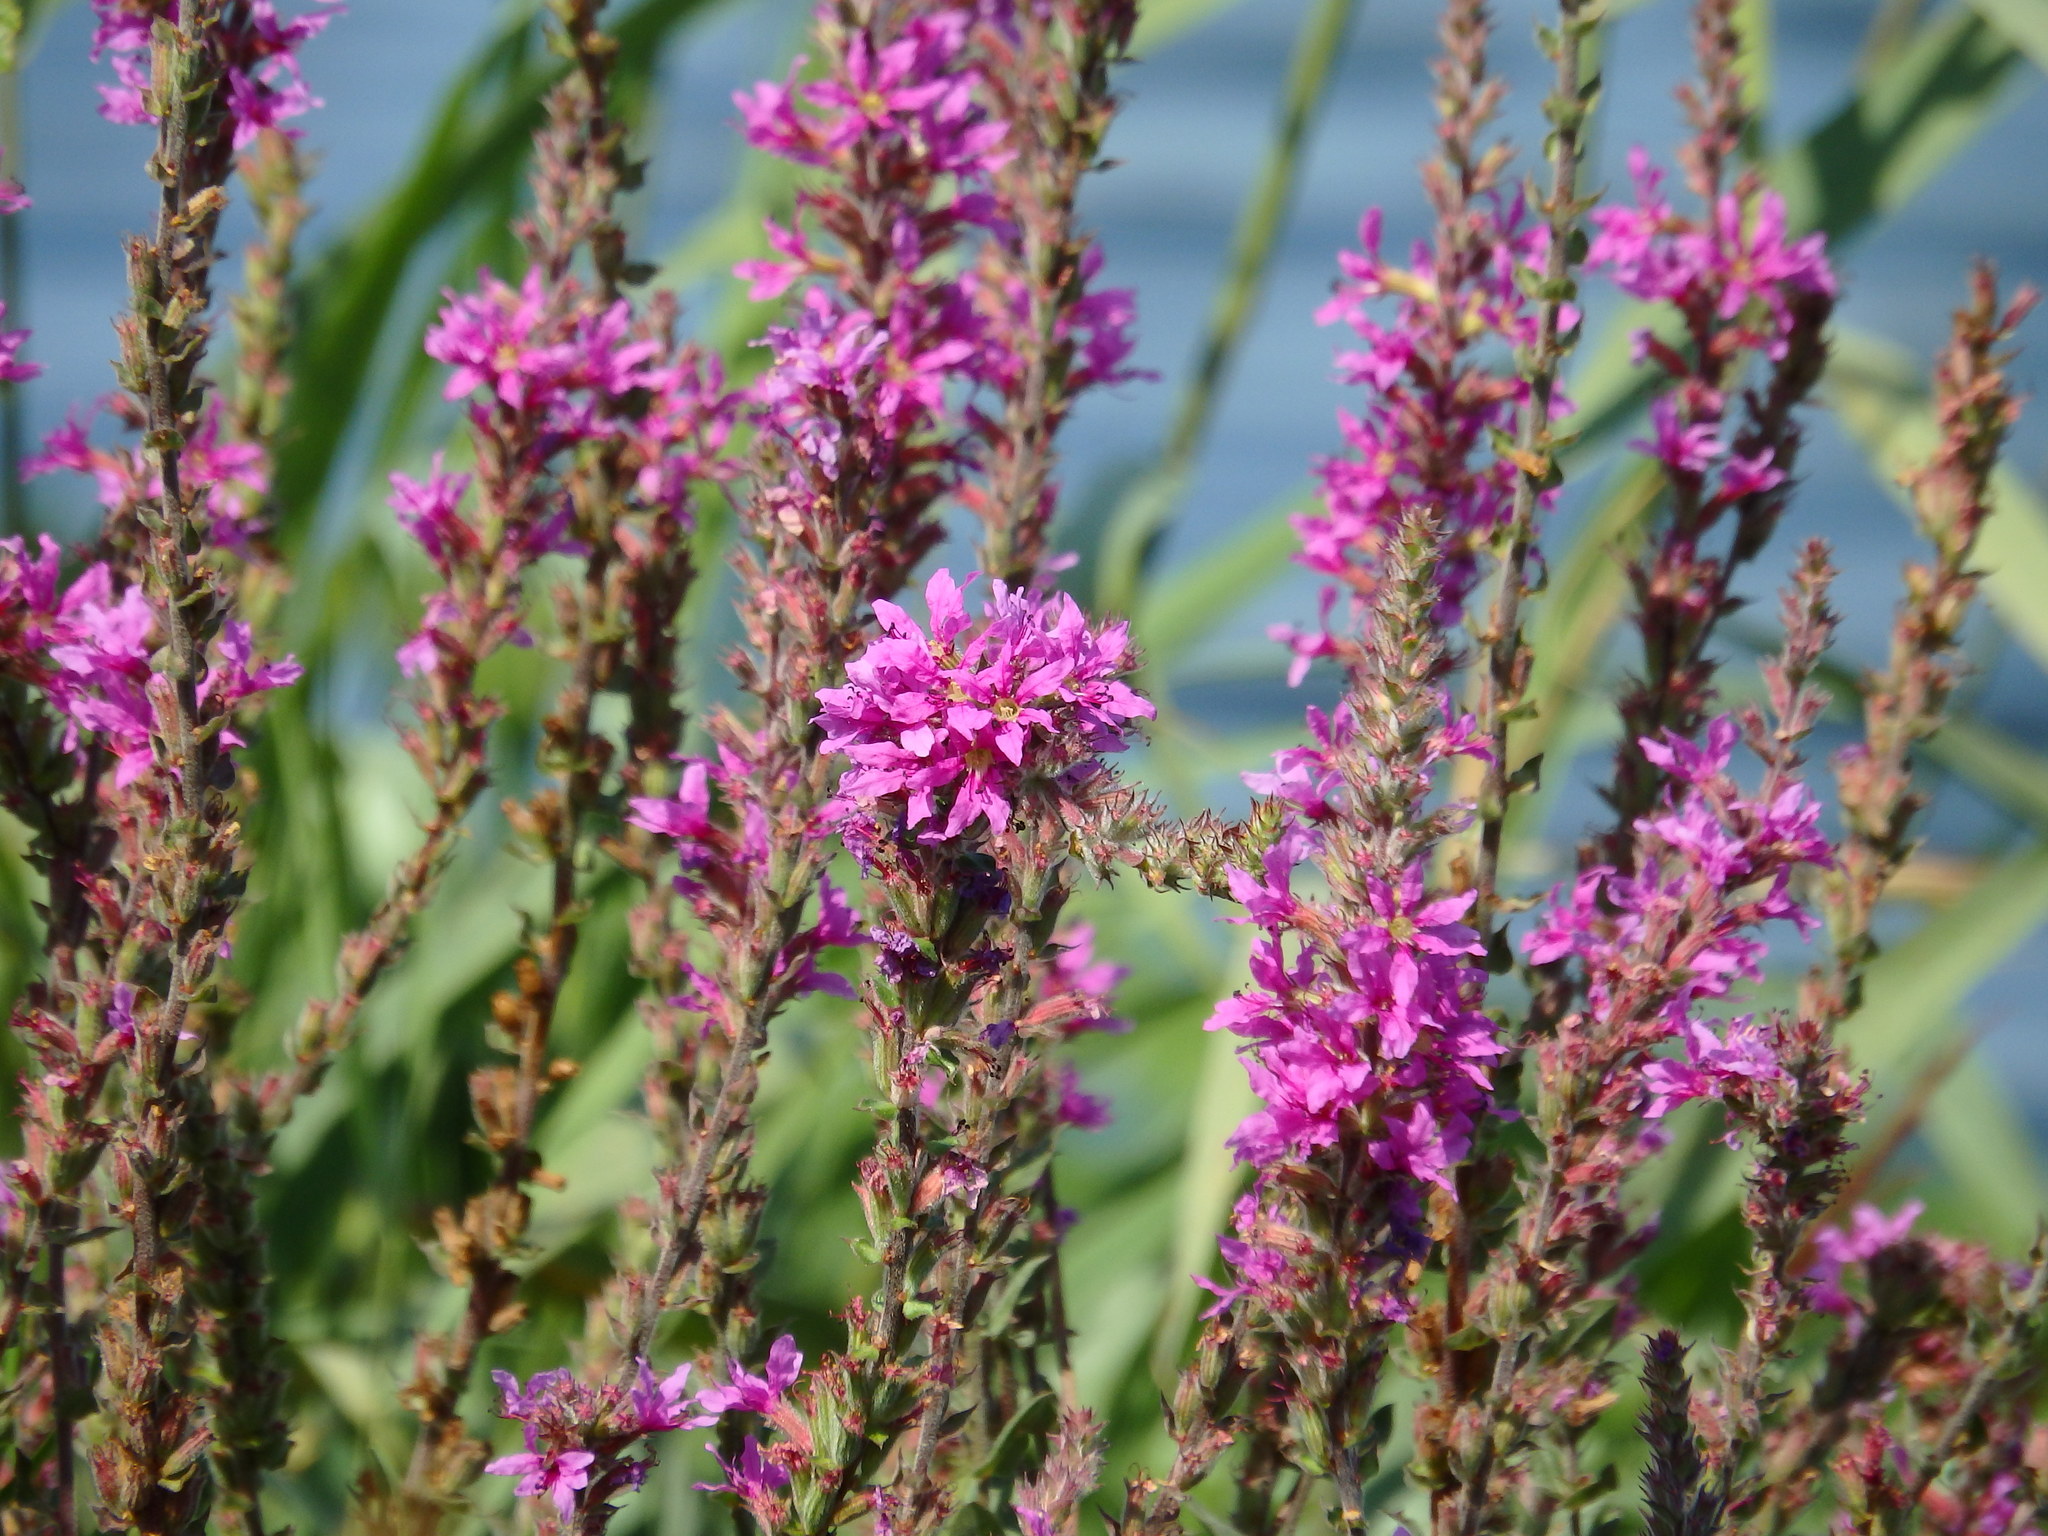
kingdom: Plantae
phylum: Tracheophyta
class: Magnoliopsida
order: Myrtales
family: Lythraceae
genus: Lythrum
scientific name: Lythrum salicaria
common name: Purple loosestrife
